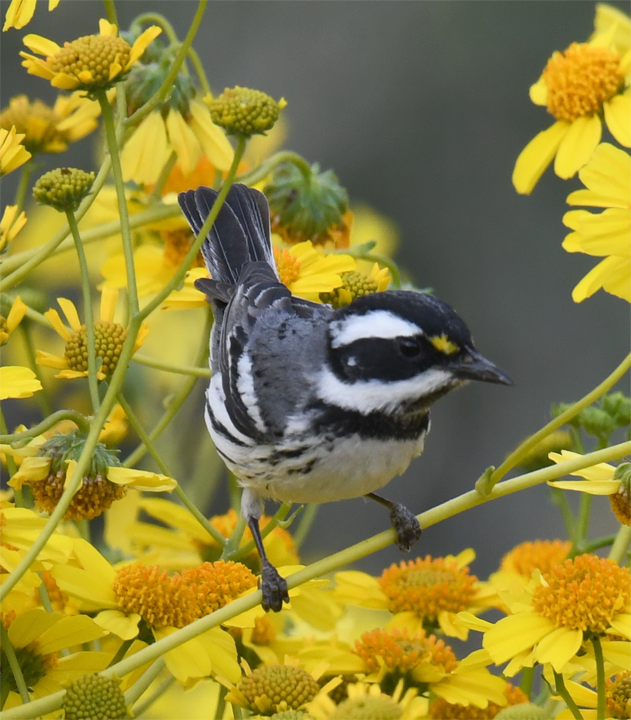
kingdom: Animalia
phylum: Chordata
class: Aves
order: Passeriformes
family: Parulidae
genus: Setophaga
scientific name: Setophaga nigrescens
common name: Black-throated gray warbler
